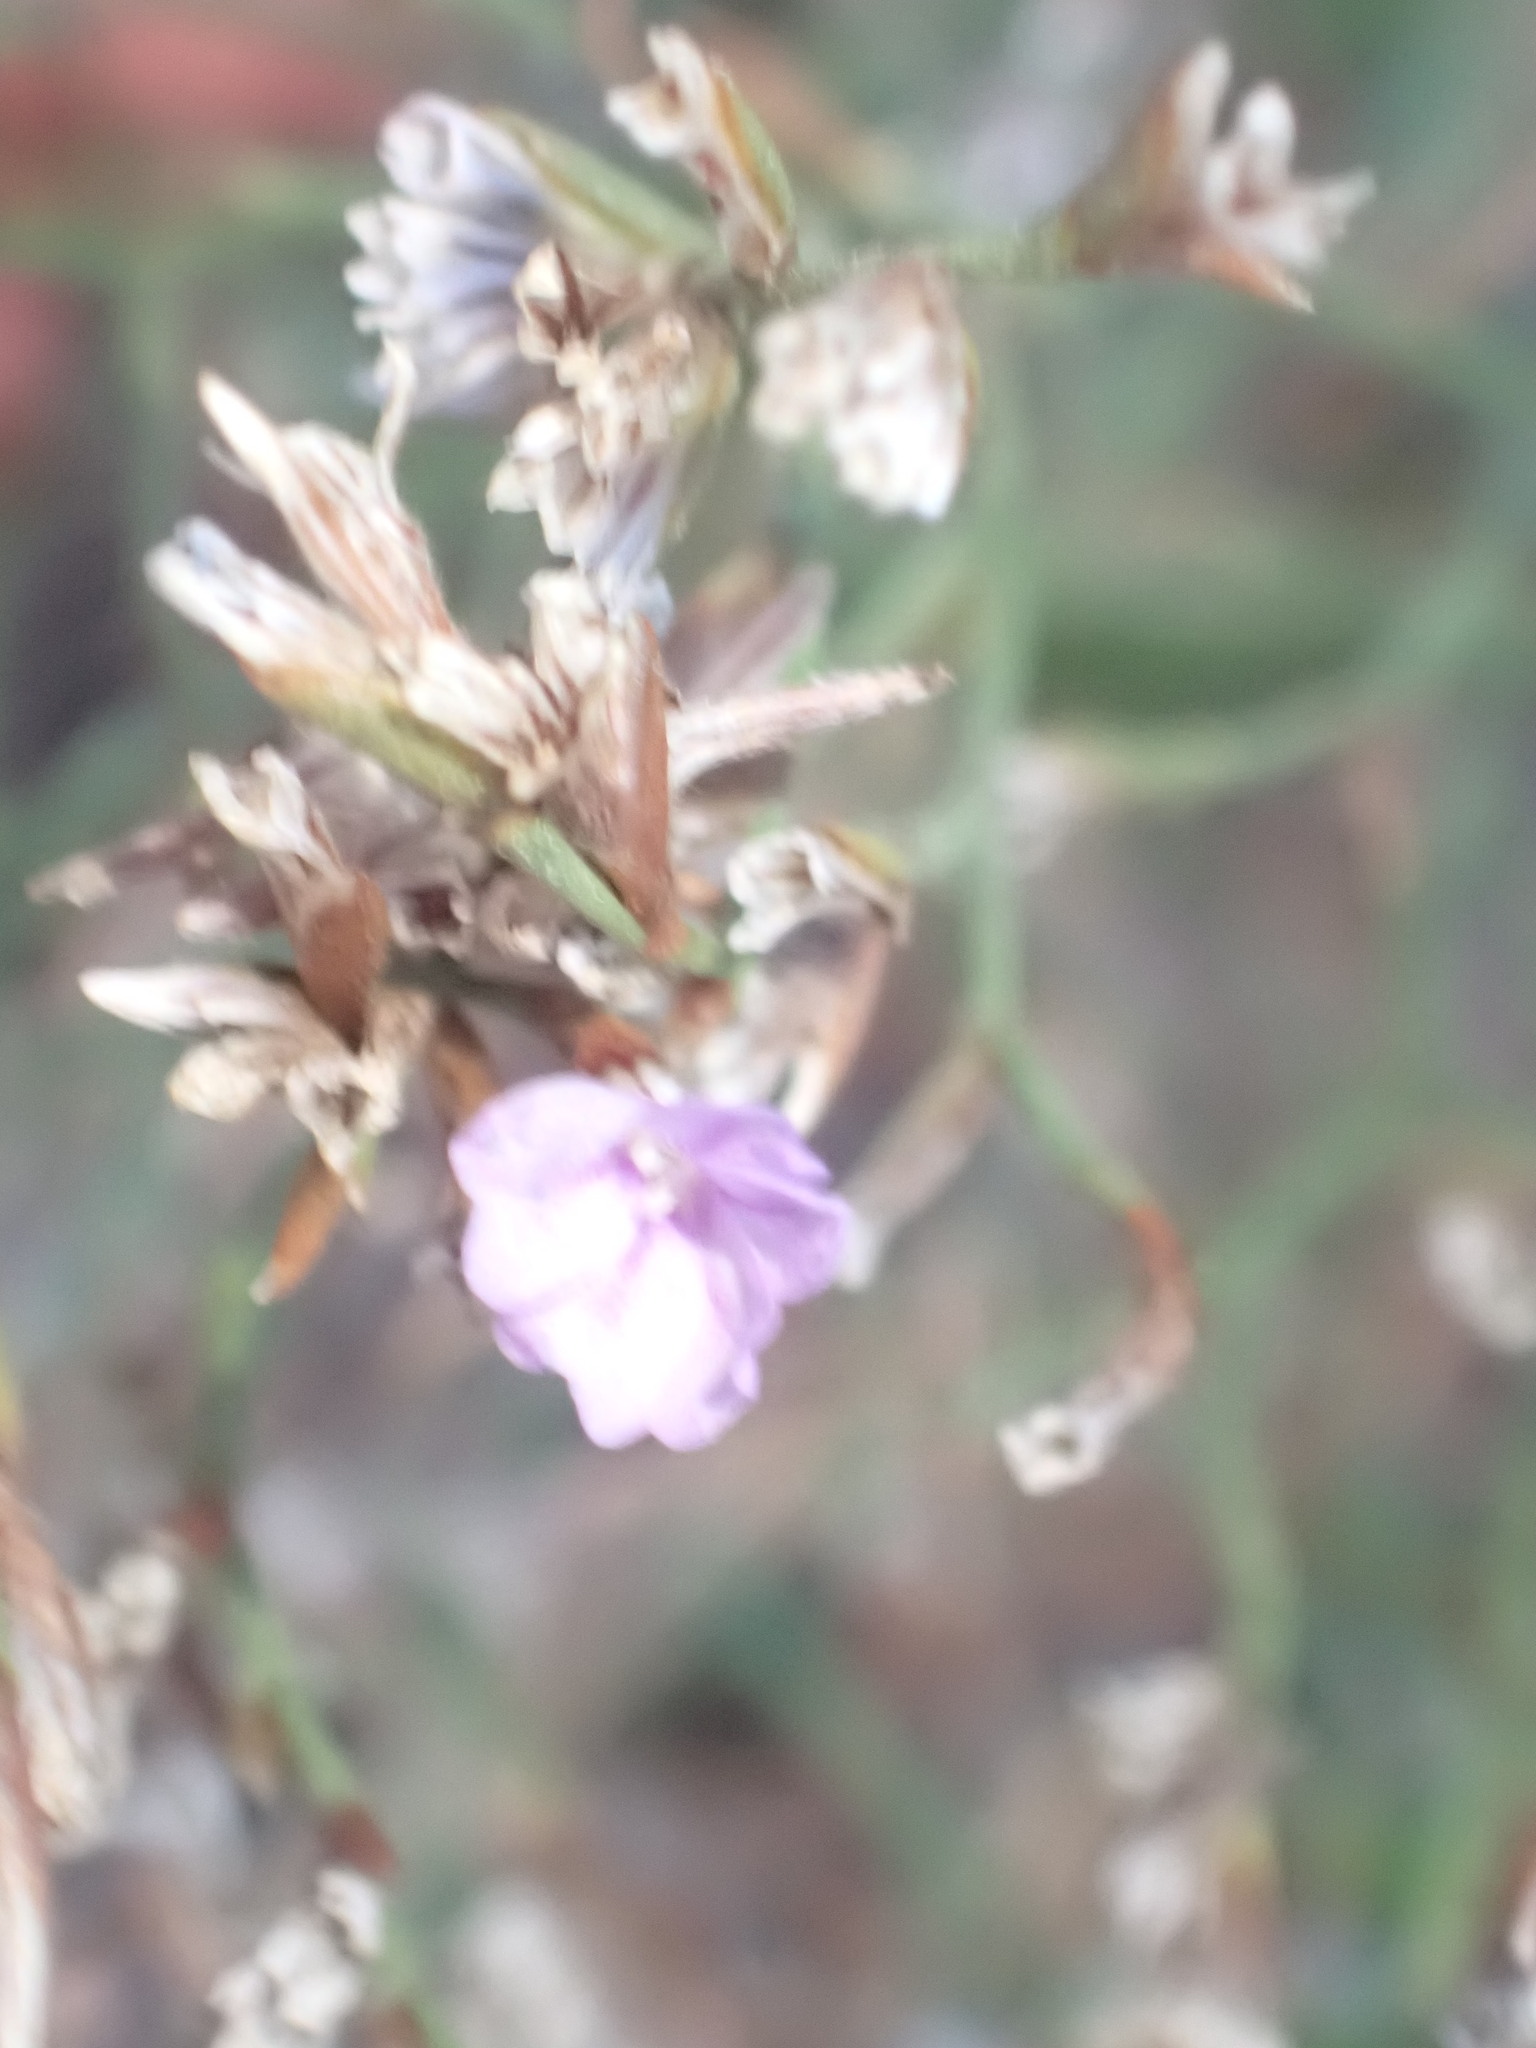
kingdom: Plantae
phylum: Tracheophyta
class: Magnoliopsida
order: Caryophyllales
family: Plumbaginaceae
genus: Limonium
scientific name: Limonium virgatum
